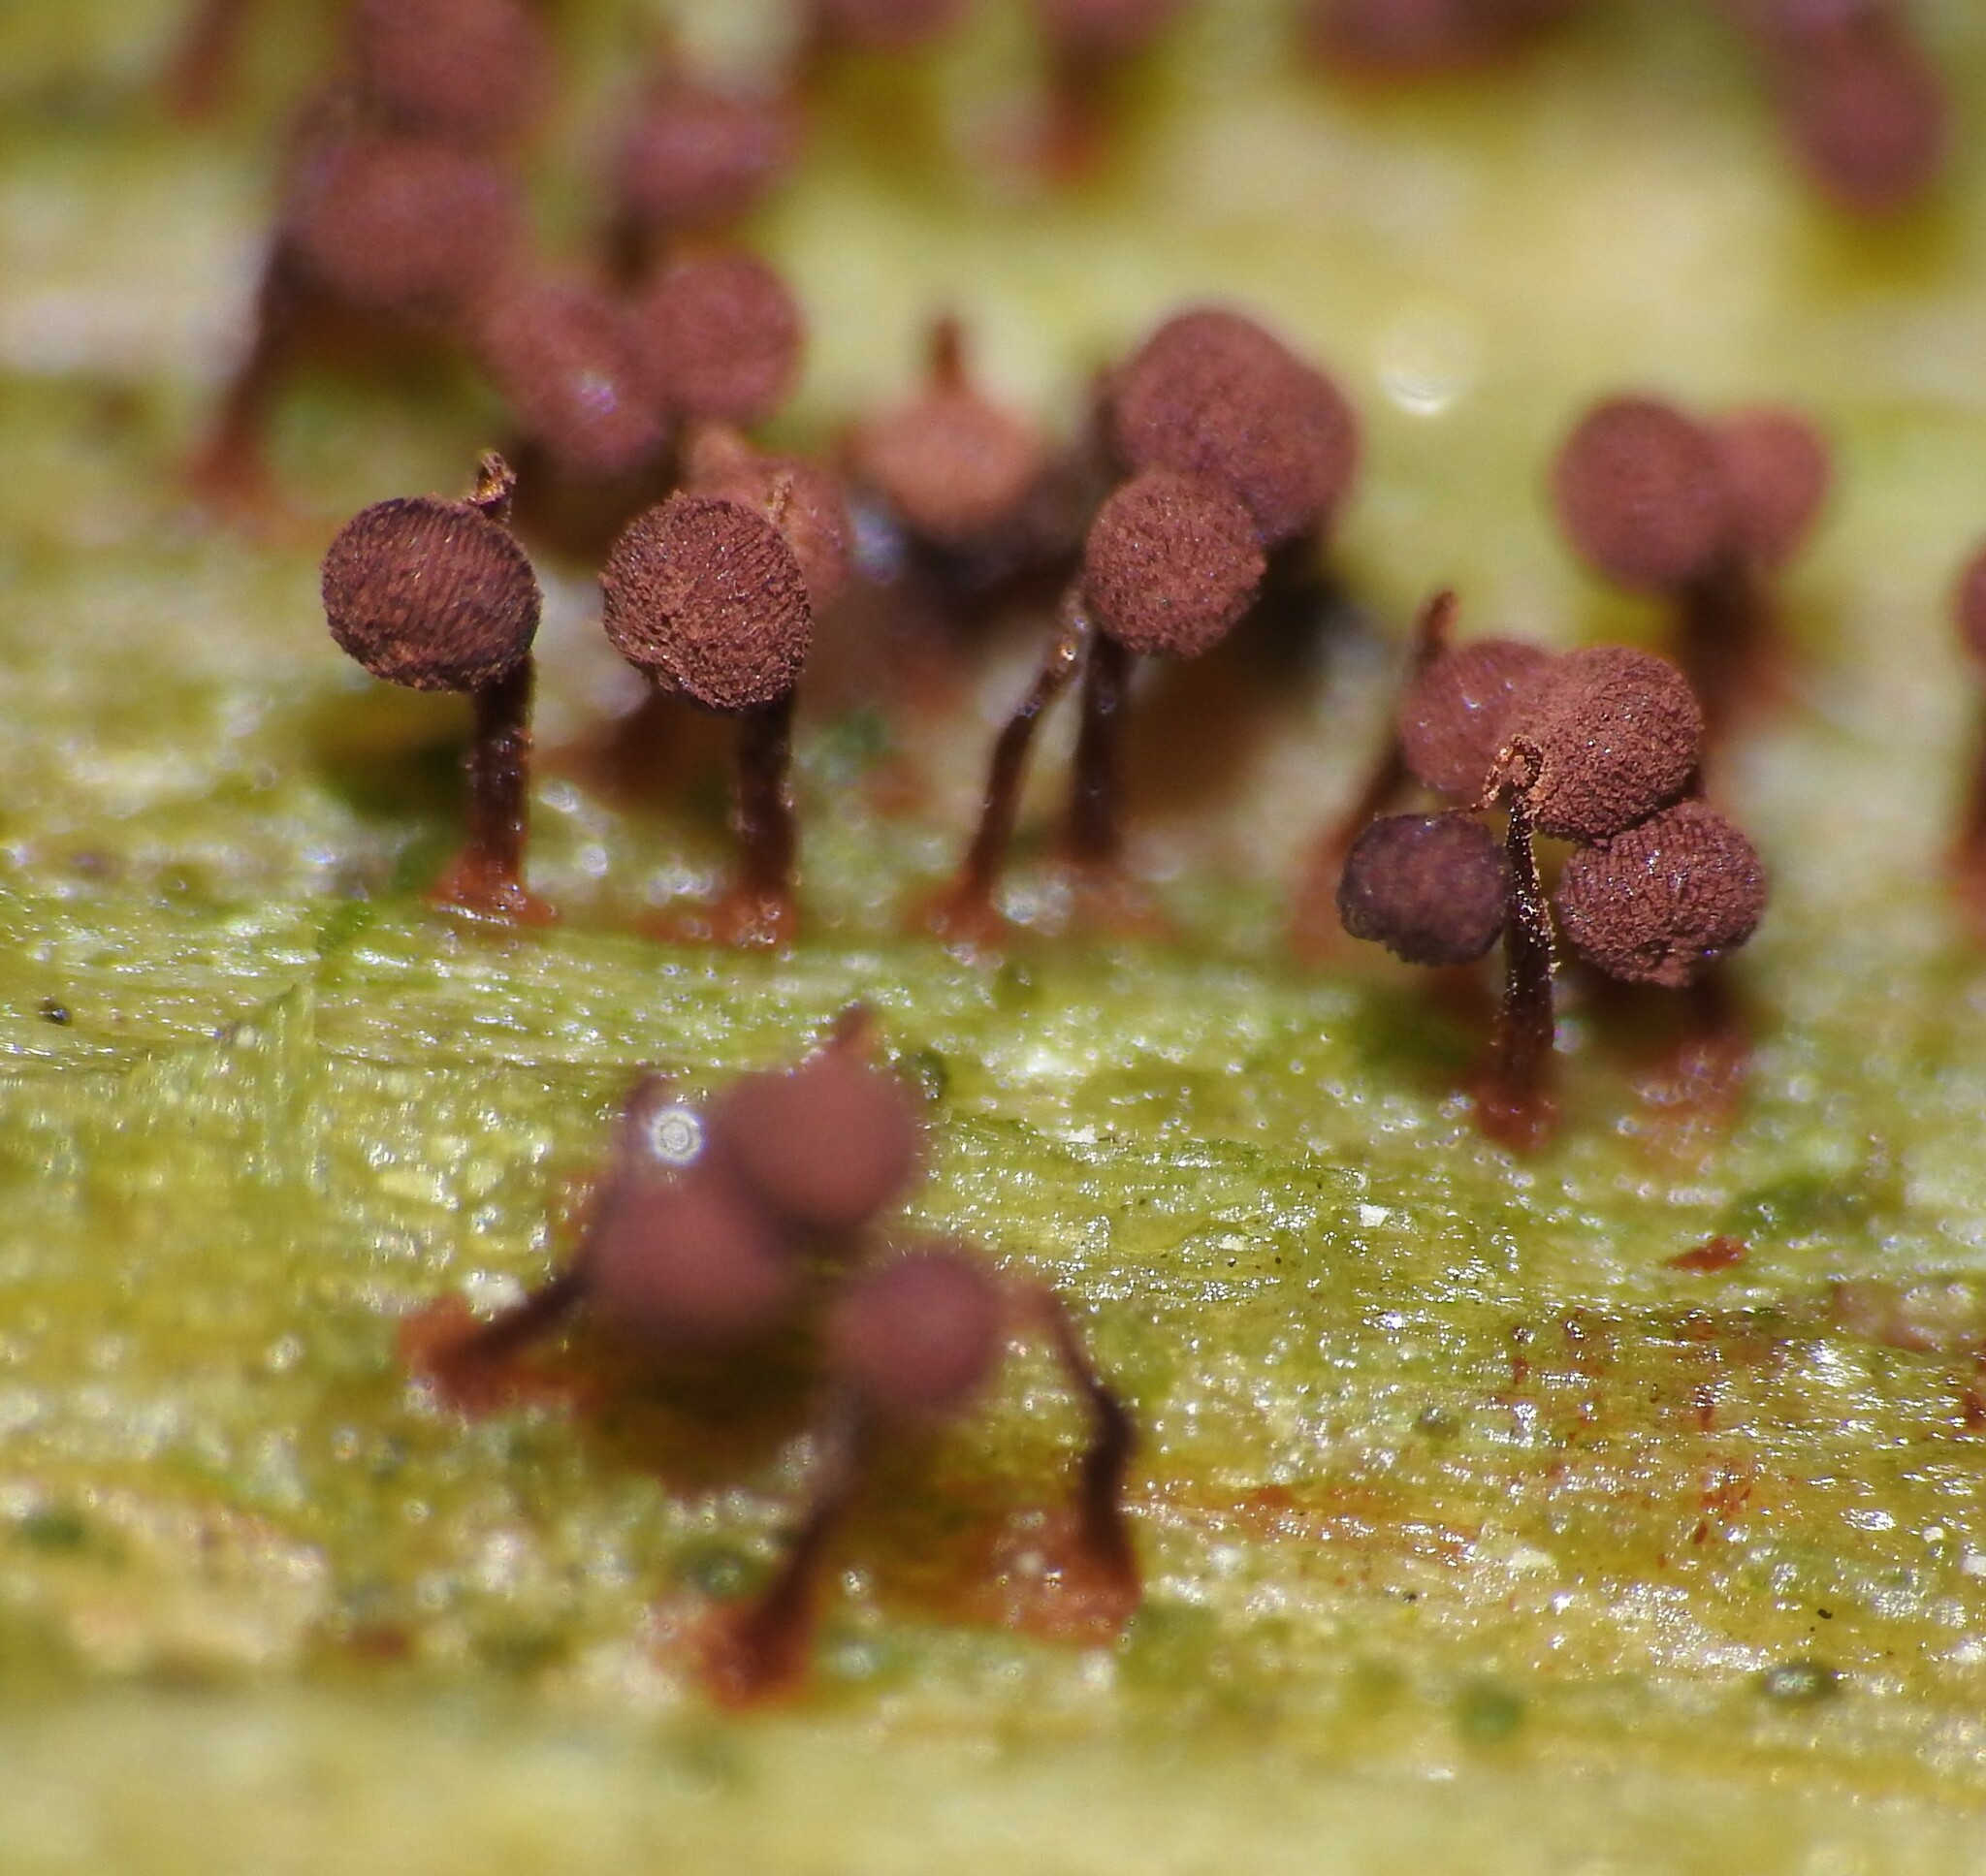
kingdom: Protozoa
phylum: Mycetozoa
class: Myxomycetes
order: Cribrariales
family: Cribrariaceae
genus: Cribraria
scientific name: Cribraria cancellata
